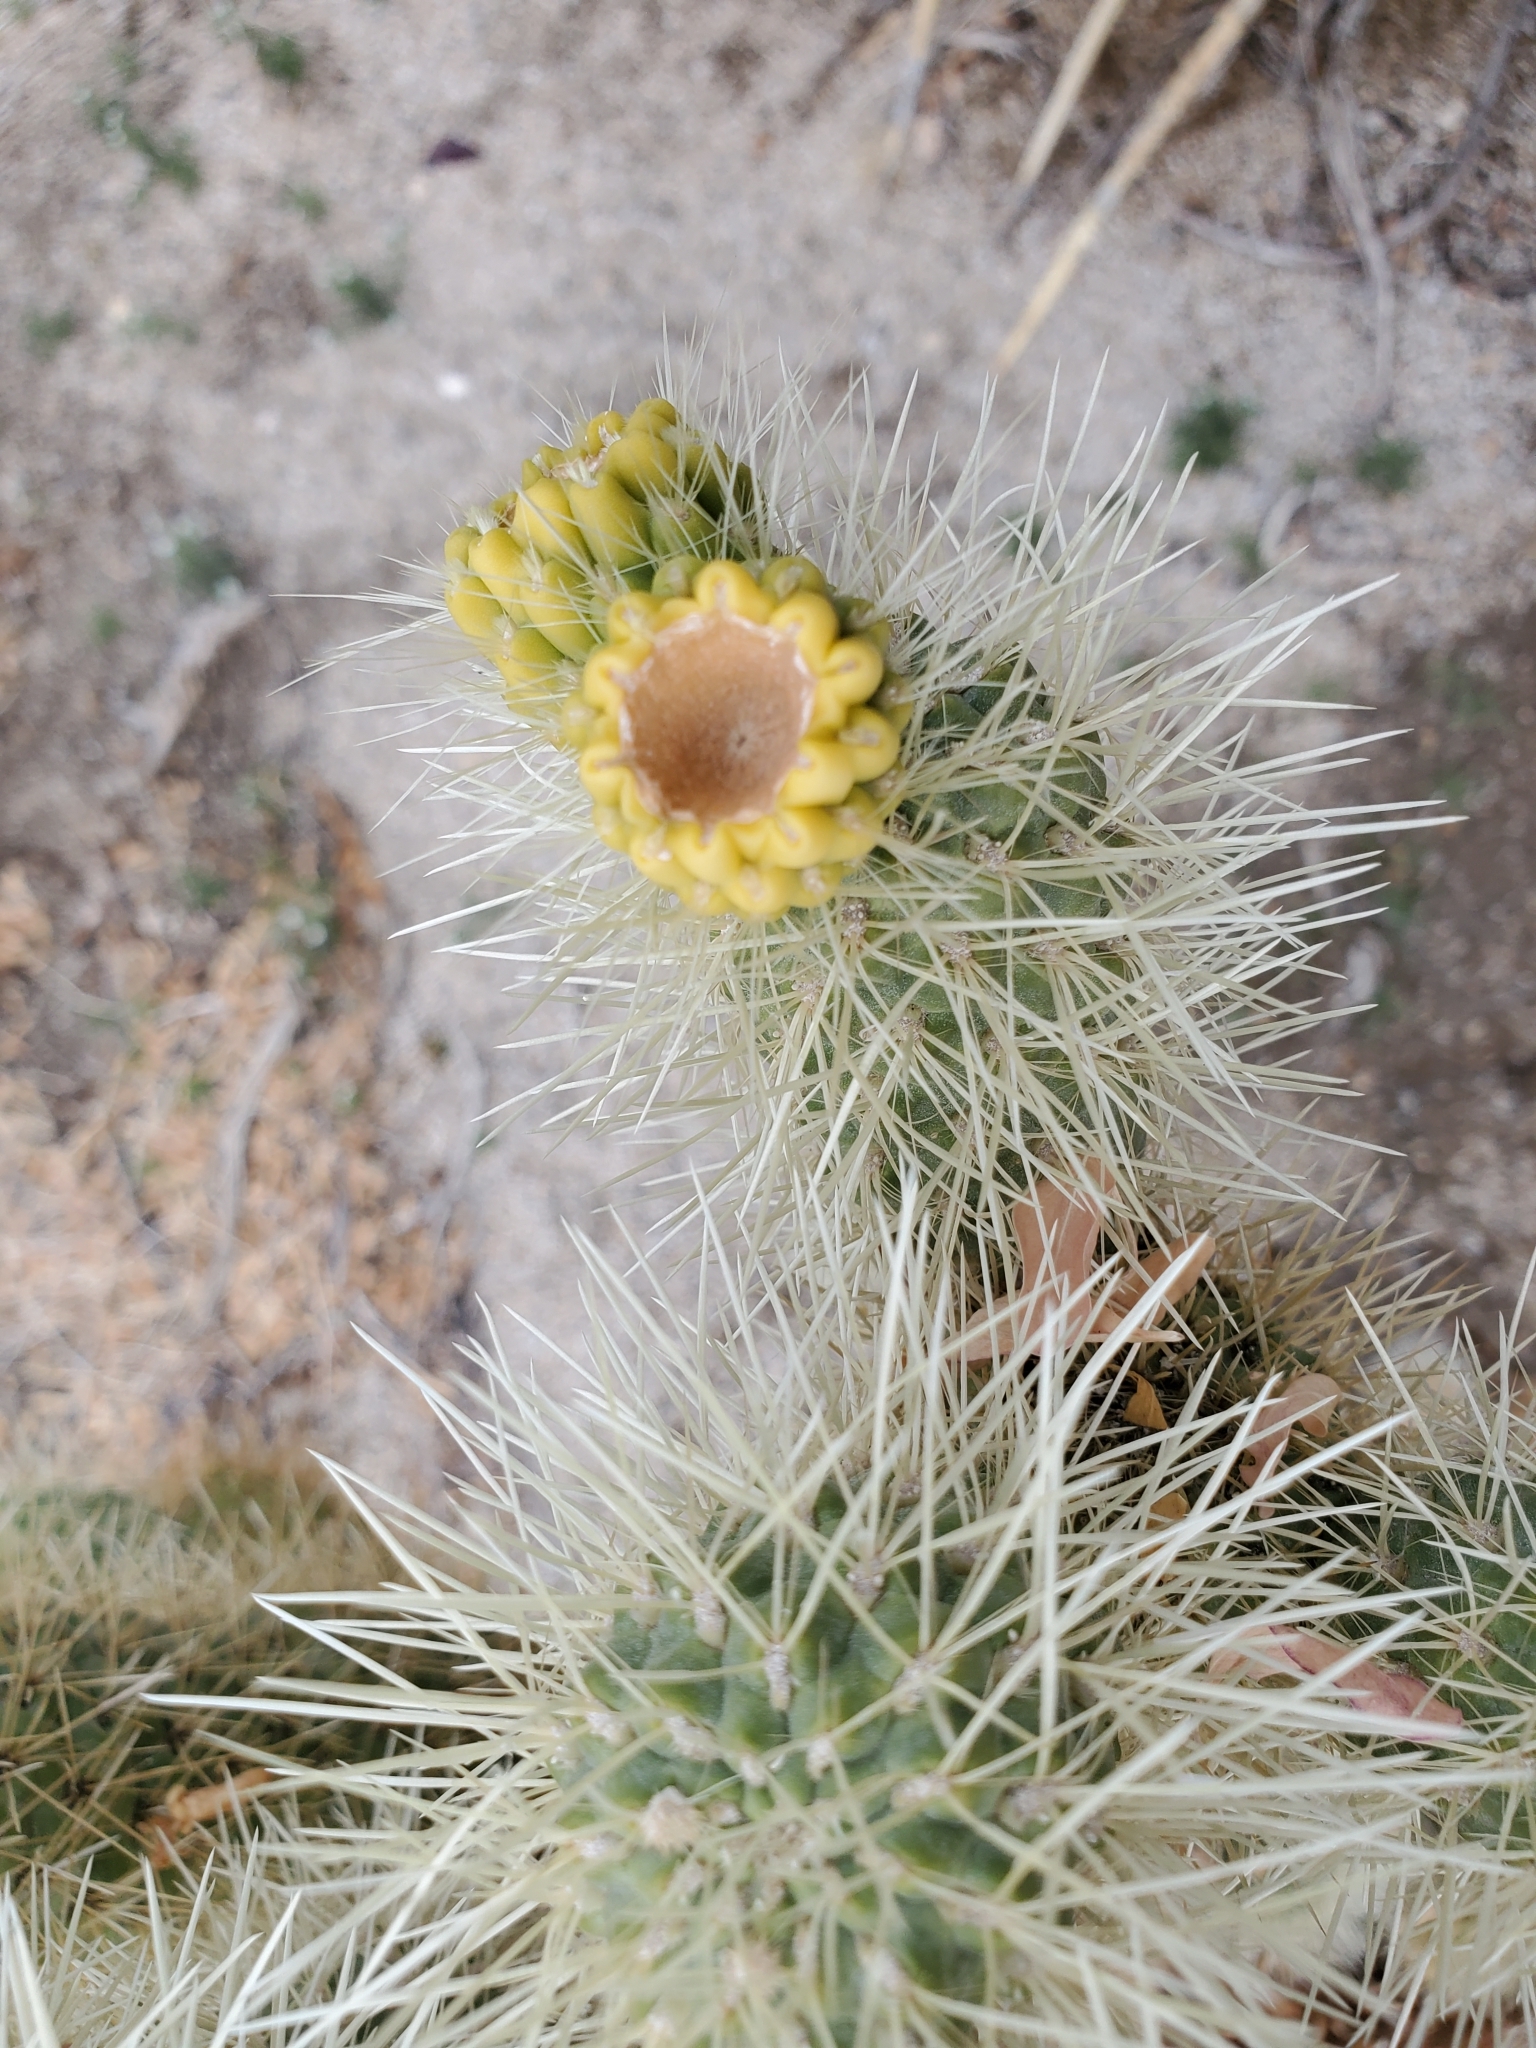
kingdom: Plantae
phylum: Tracheophyta
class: Magnoliopsida
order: Caryophyllales
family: Cactaceae
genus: Cylindropuntia
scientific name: Cylindropuntia fosbergii
